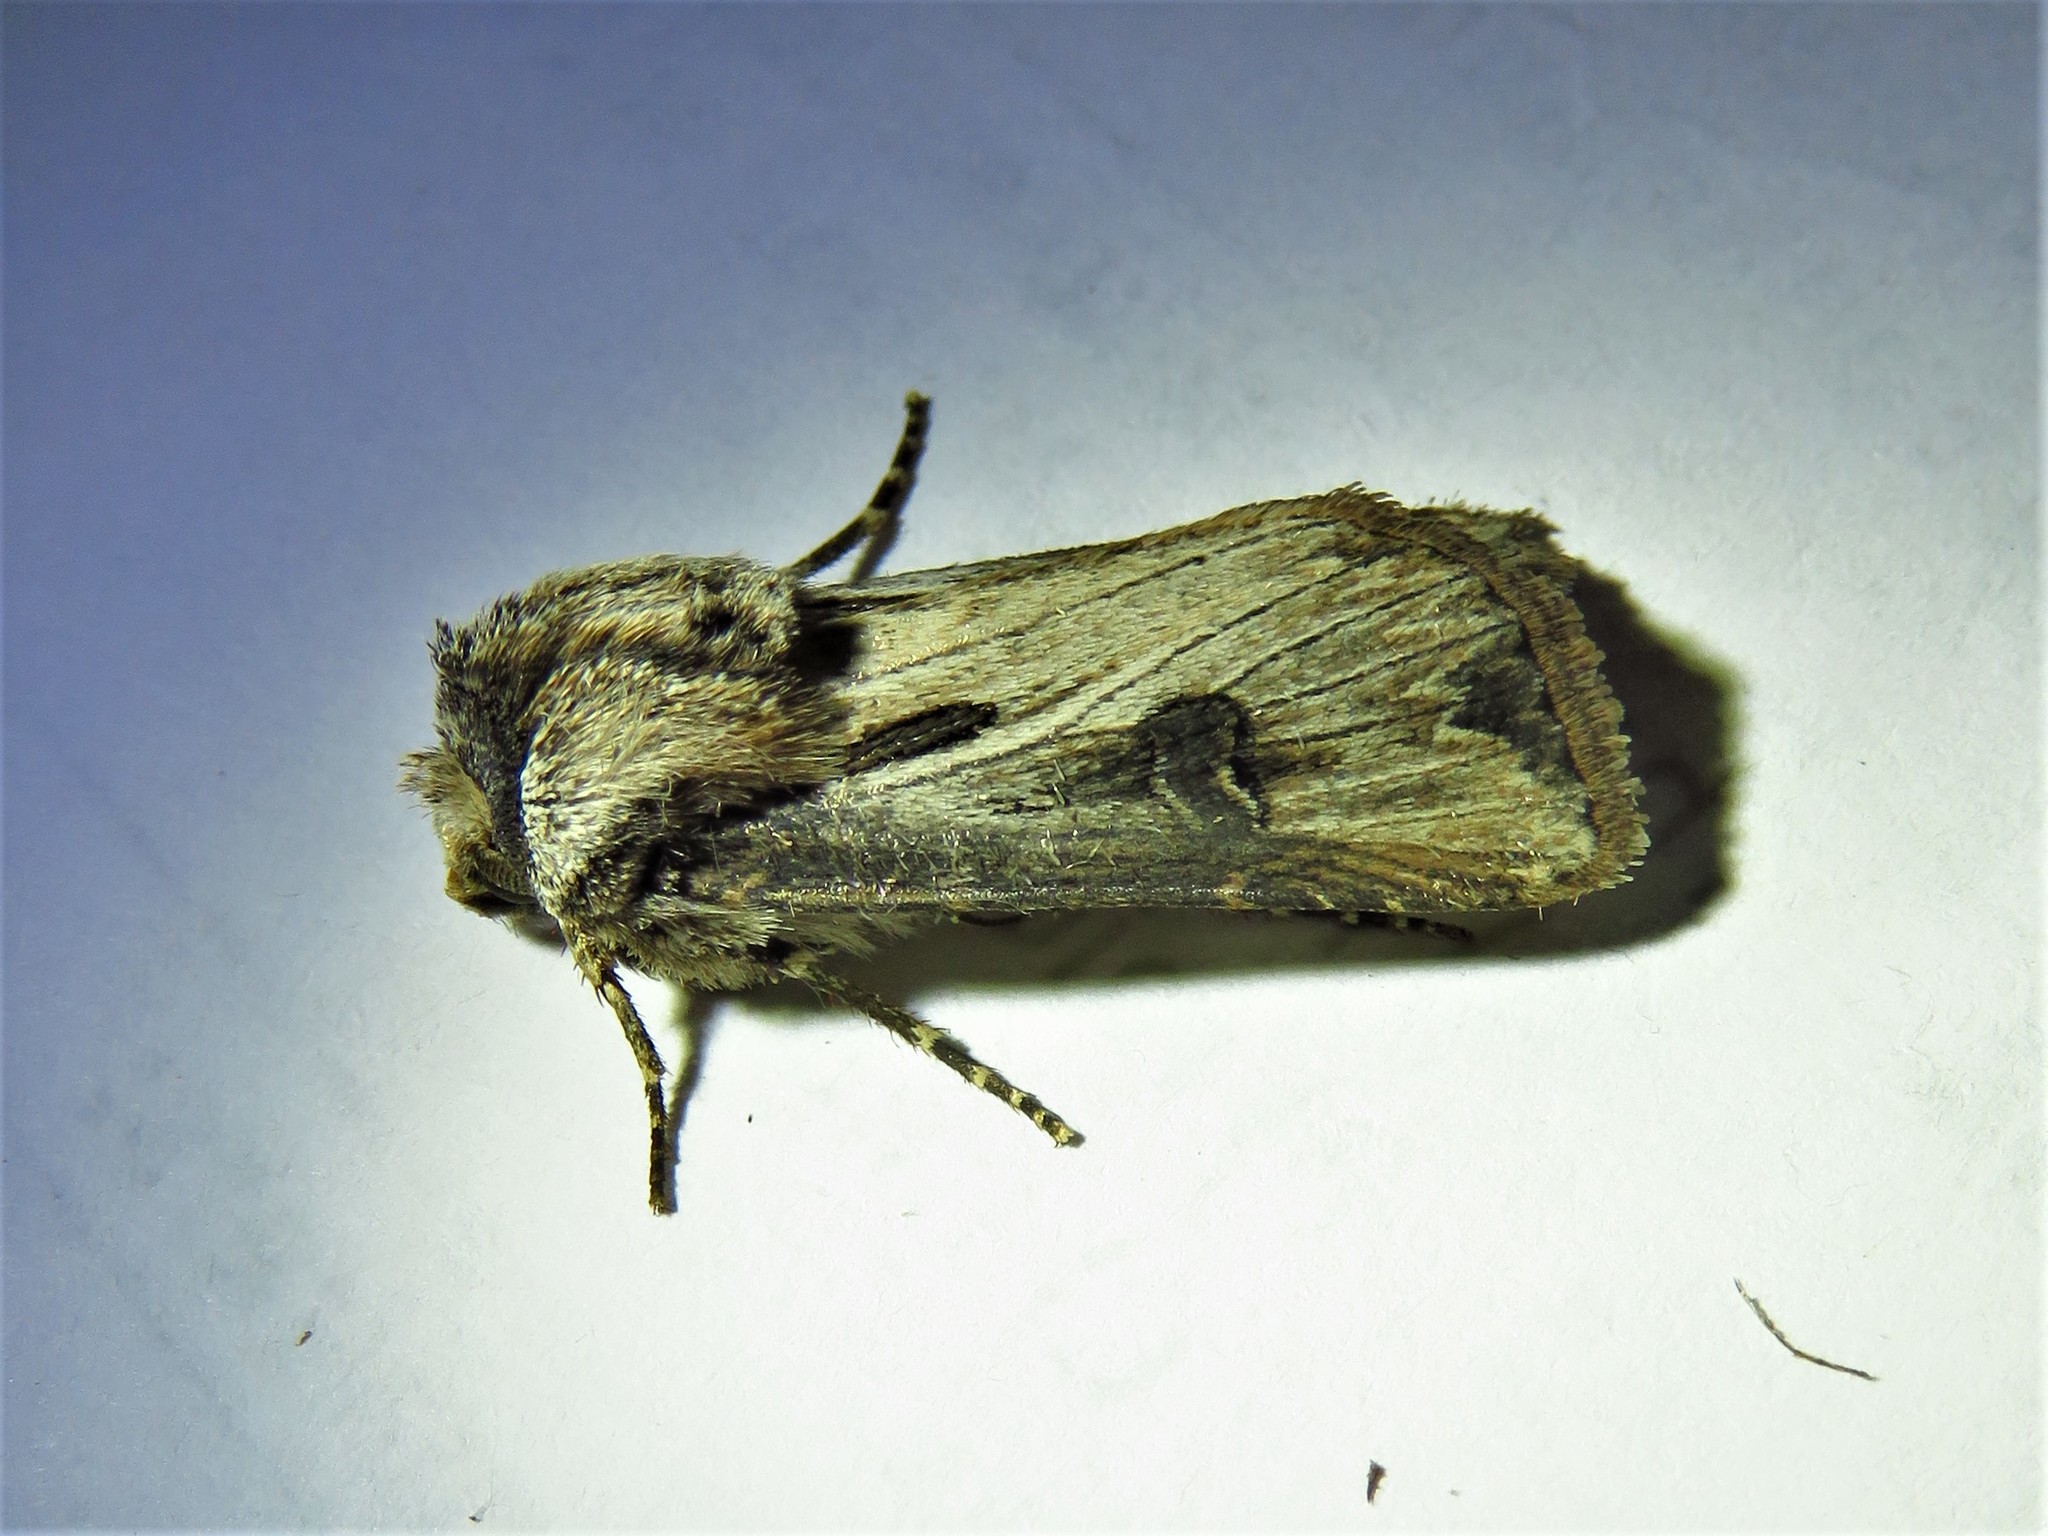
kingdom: Animalia
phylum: Arthropoda
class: Insecta
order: Lepidoptera
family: Noctuidae
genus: Agrotis
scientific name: Agrotis venerabilis
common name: Venerable dart
